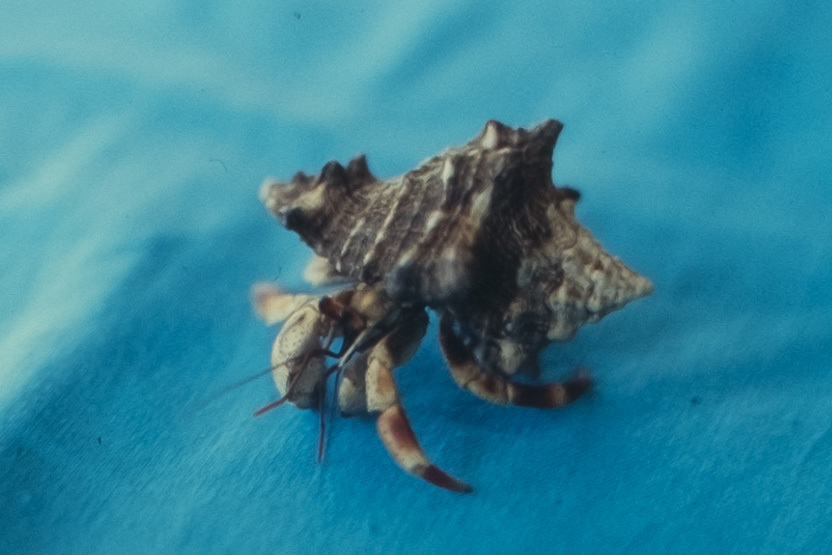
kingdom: Animalia
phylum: Arthropoda
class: Malacostraca
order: Decapoda
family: Coenobitidae
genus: Coenobita
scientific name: Coenobita violascens
